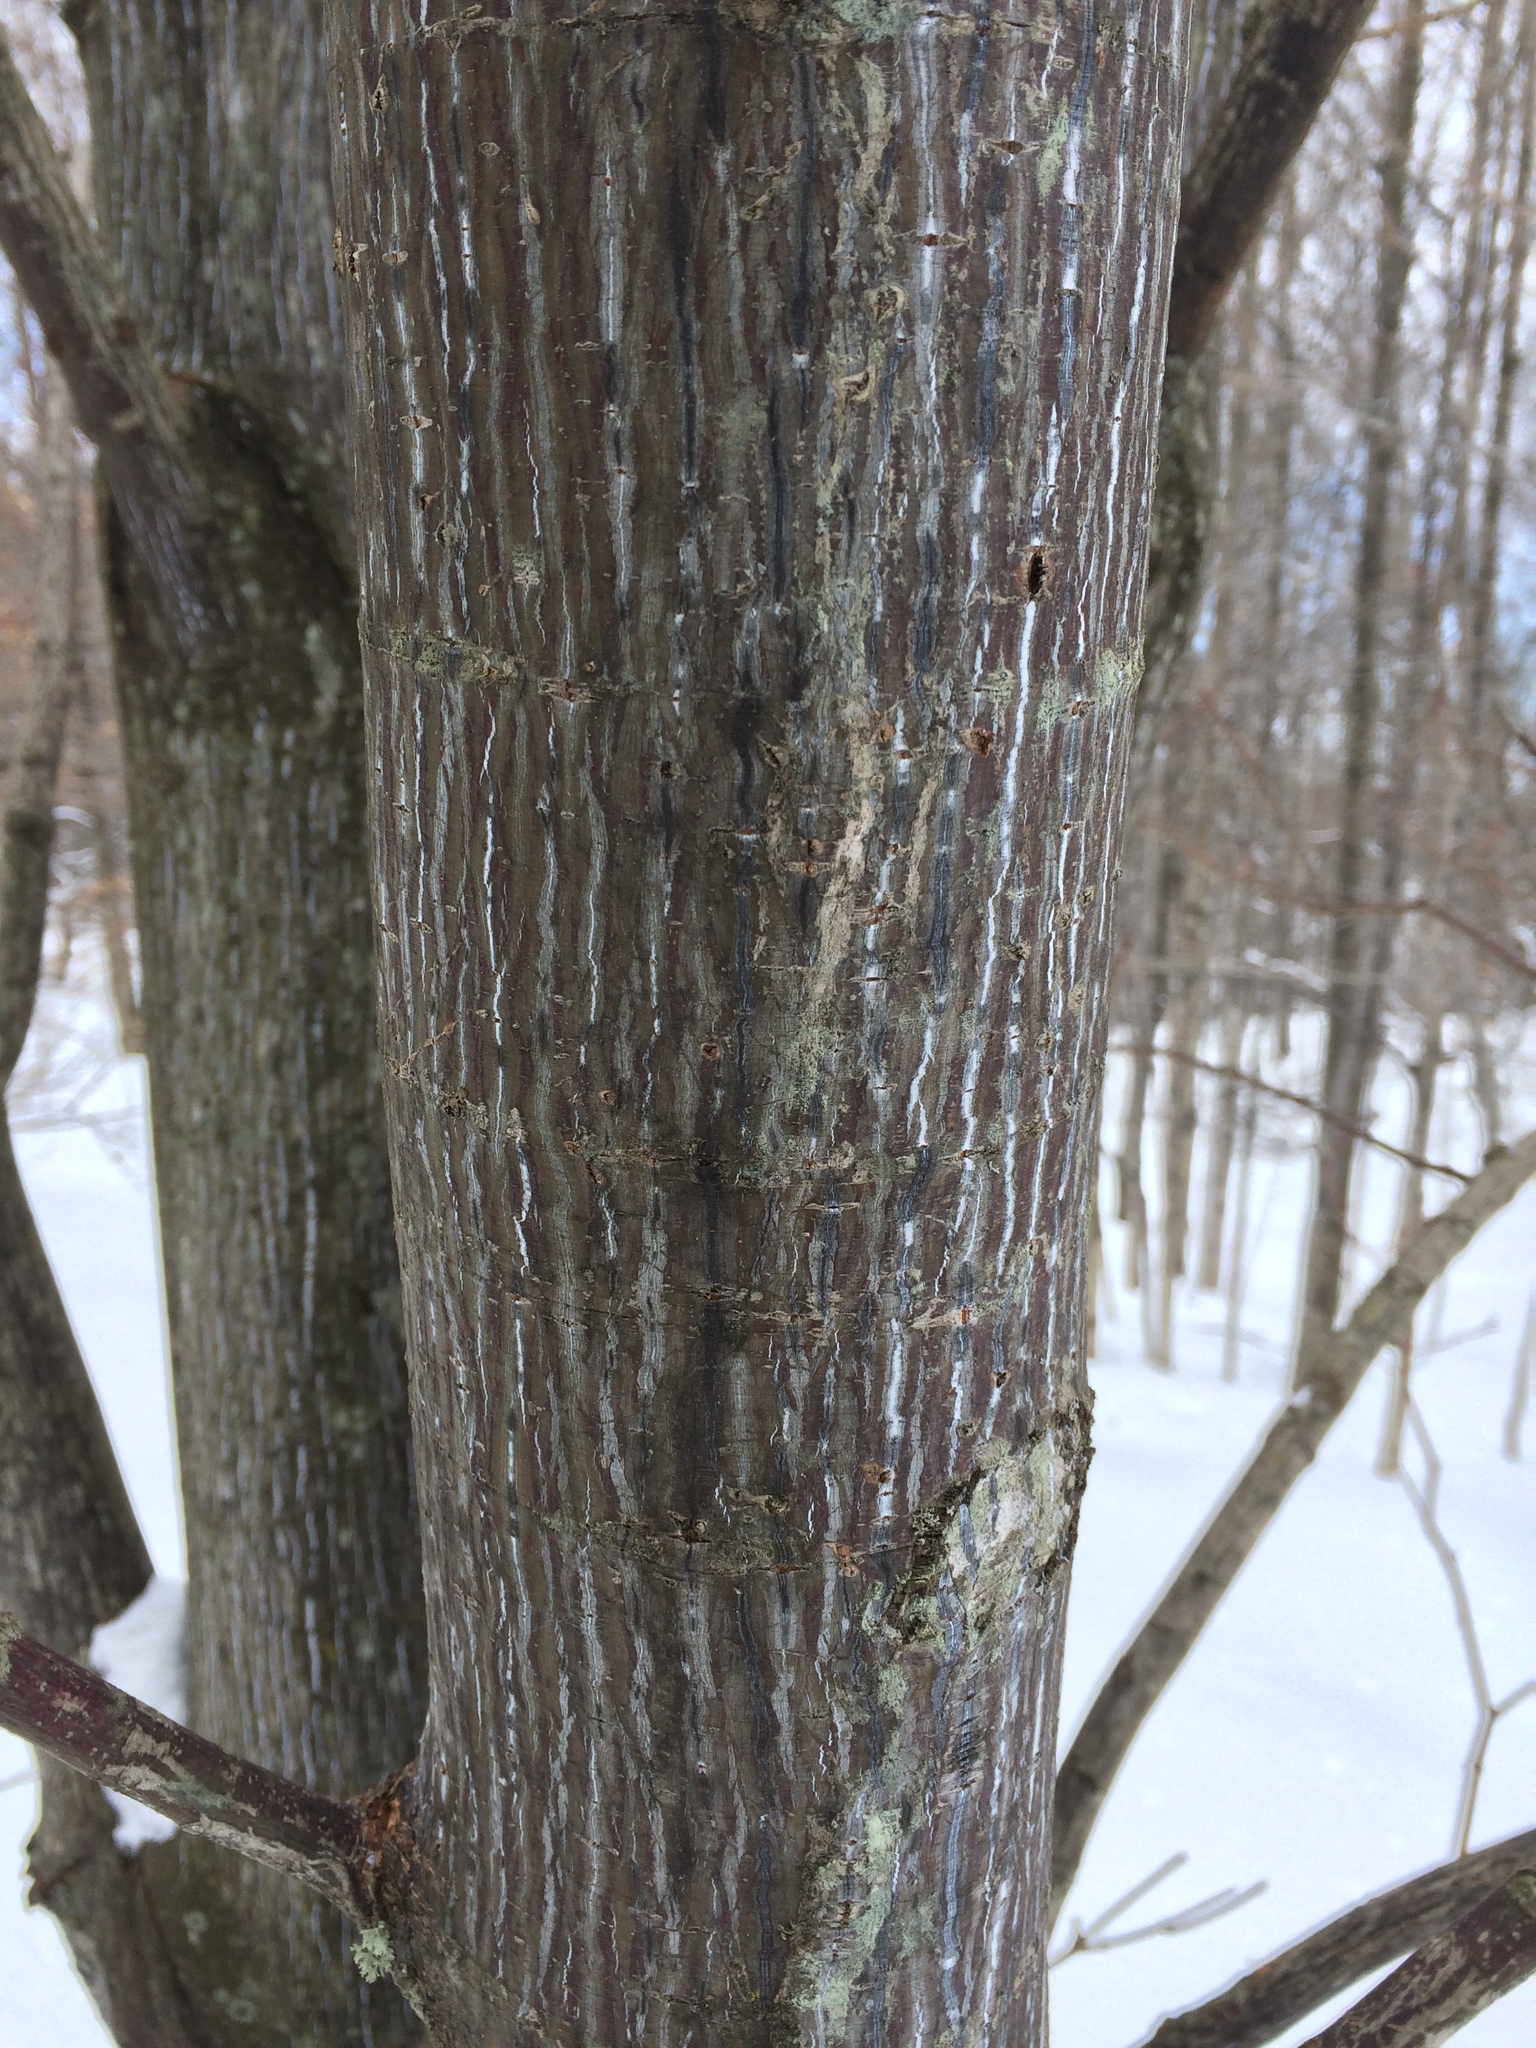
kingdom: Plantae
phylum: Tracheophyta
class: Magnoliopsida
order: Sapindales
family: Sapindaceae
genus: Acer
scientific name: Acer pensylvanicum
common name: Moosewood
